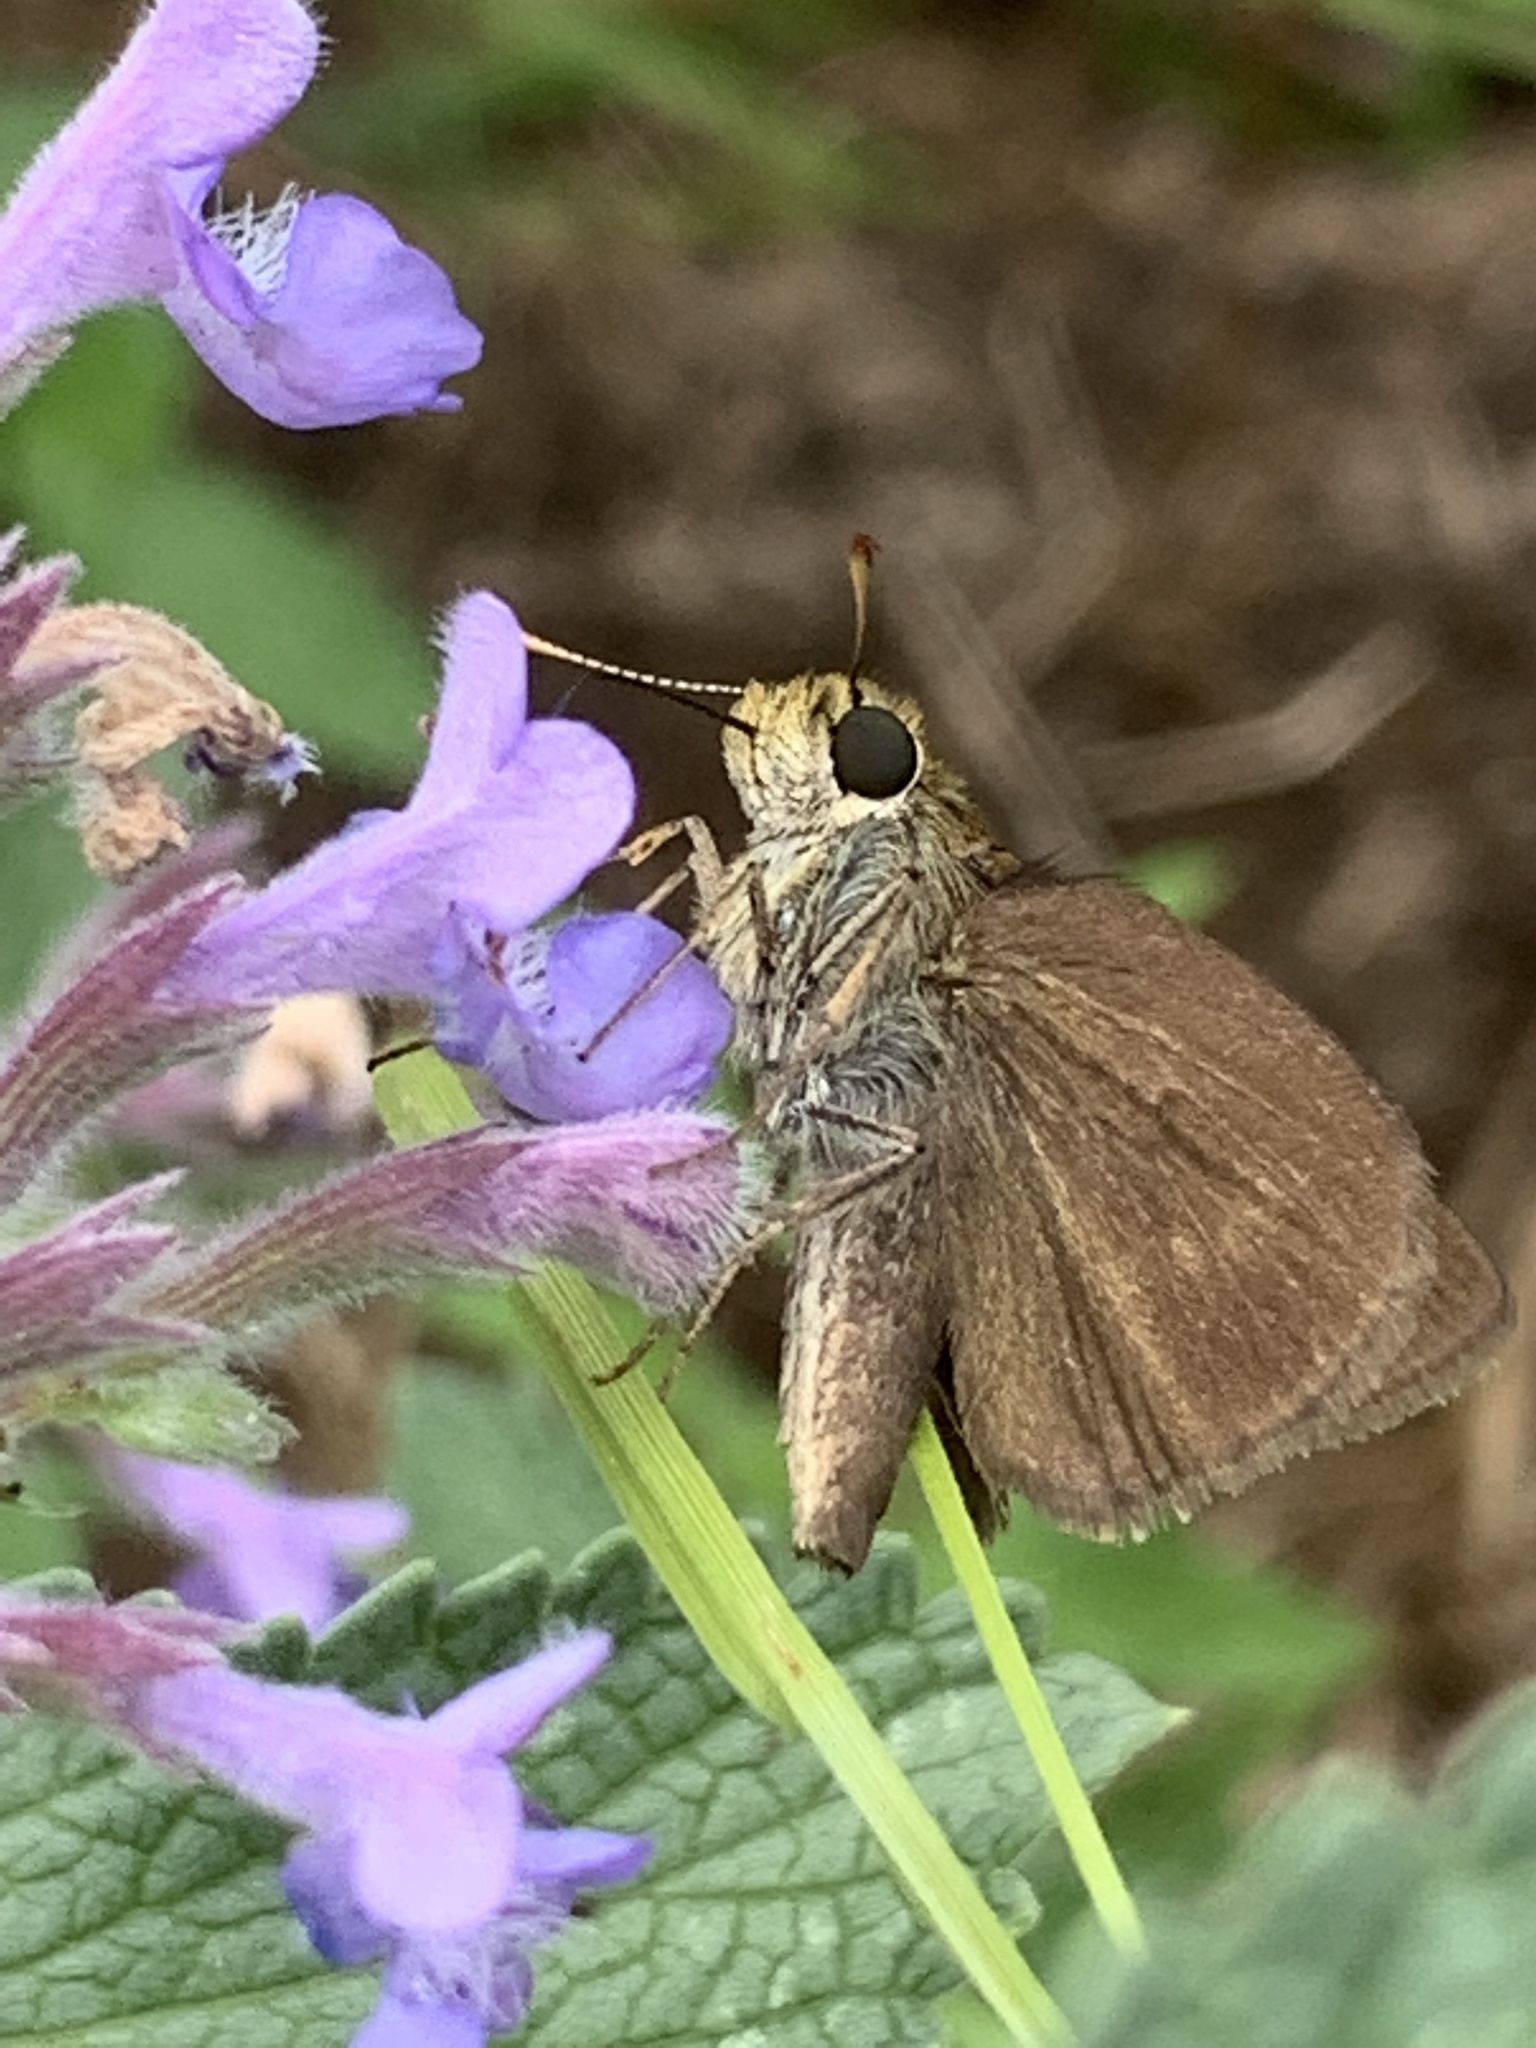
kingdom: Animalia
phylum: Arthropoda
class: Insecta
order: Lepidoptera
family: Hesperiidae
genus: Euphyes
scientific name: Euphyes vestris
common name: Dun skipper
